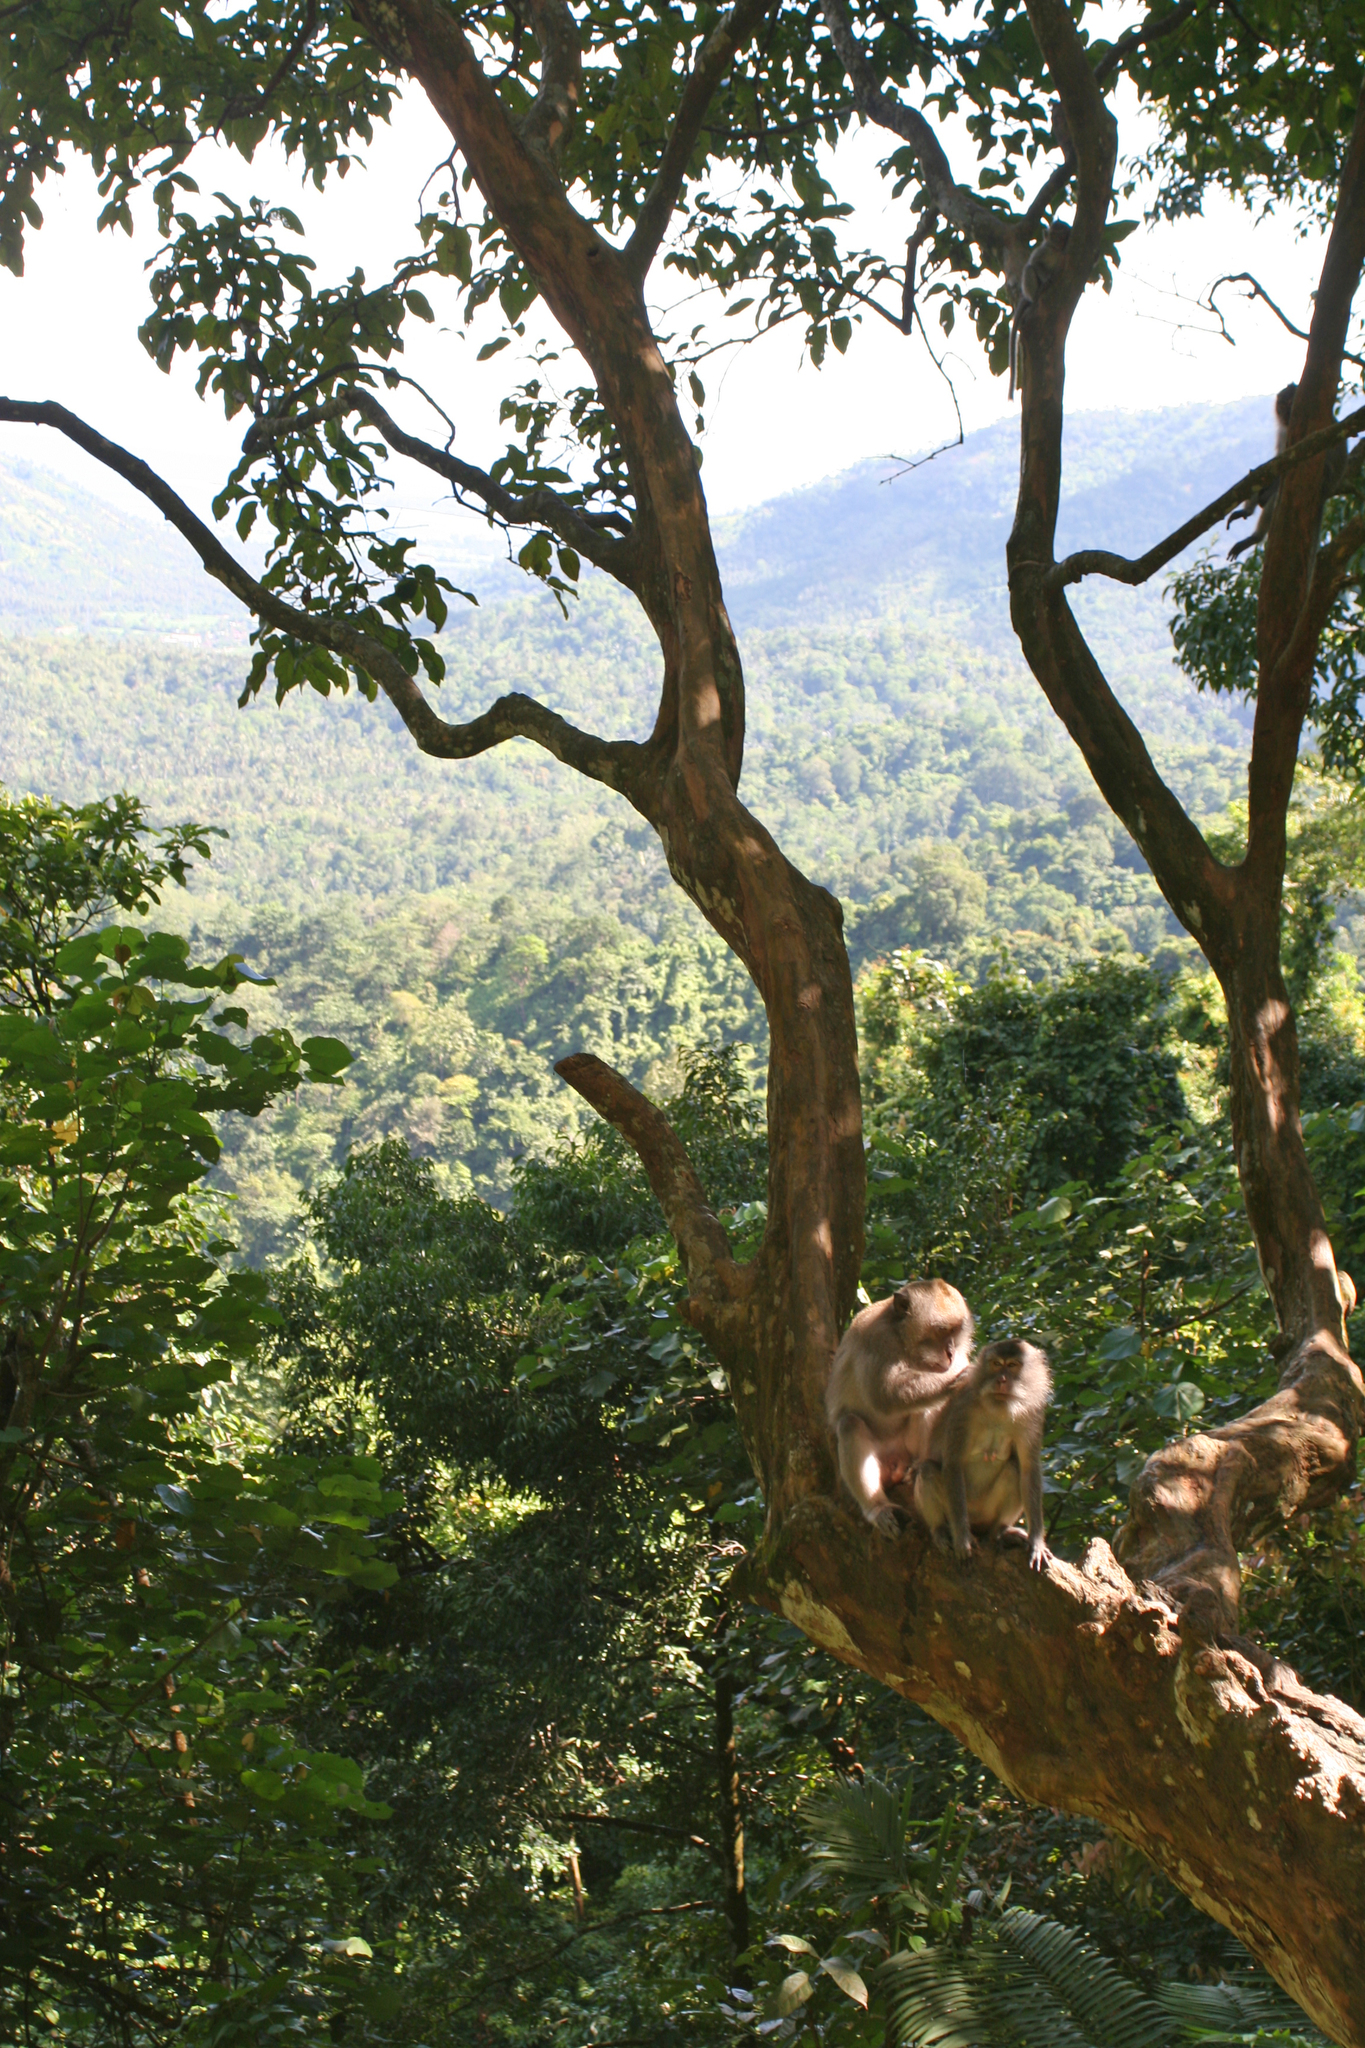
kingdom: Animalia
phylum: Chordata
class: Mammalia
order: Primates
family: Cercopithecidae
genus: Macaca
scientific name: Macaca fascicularis
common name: Crab-eating macaque
